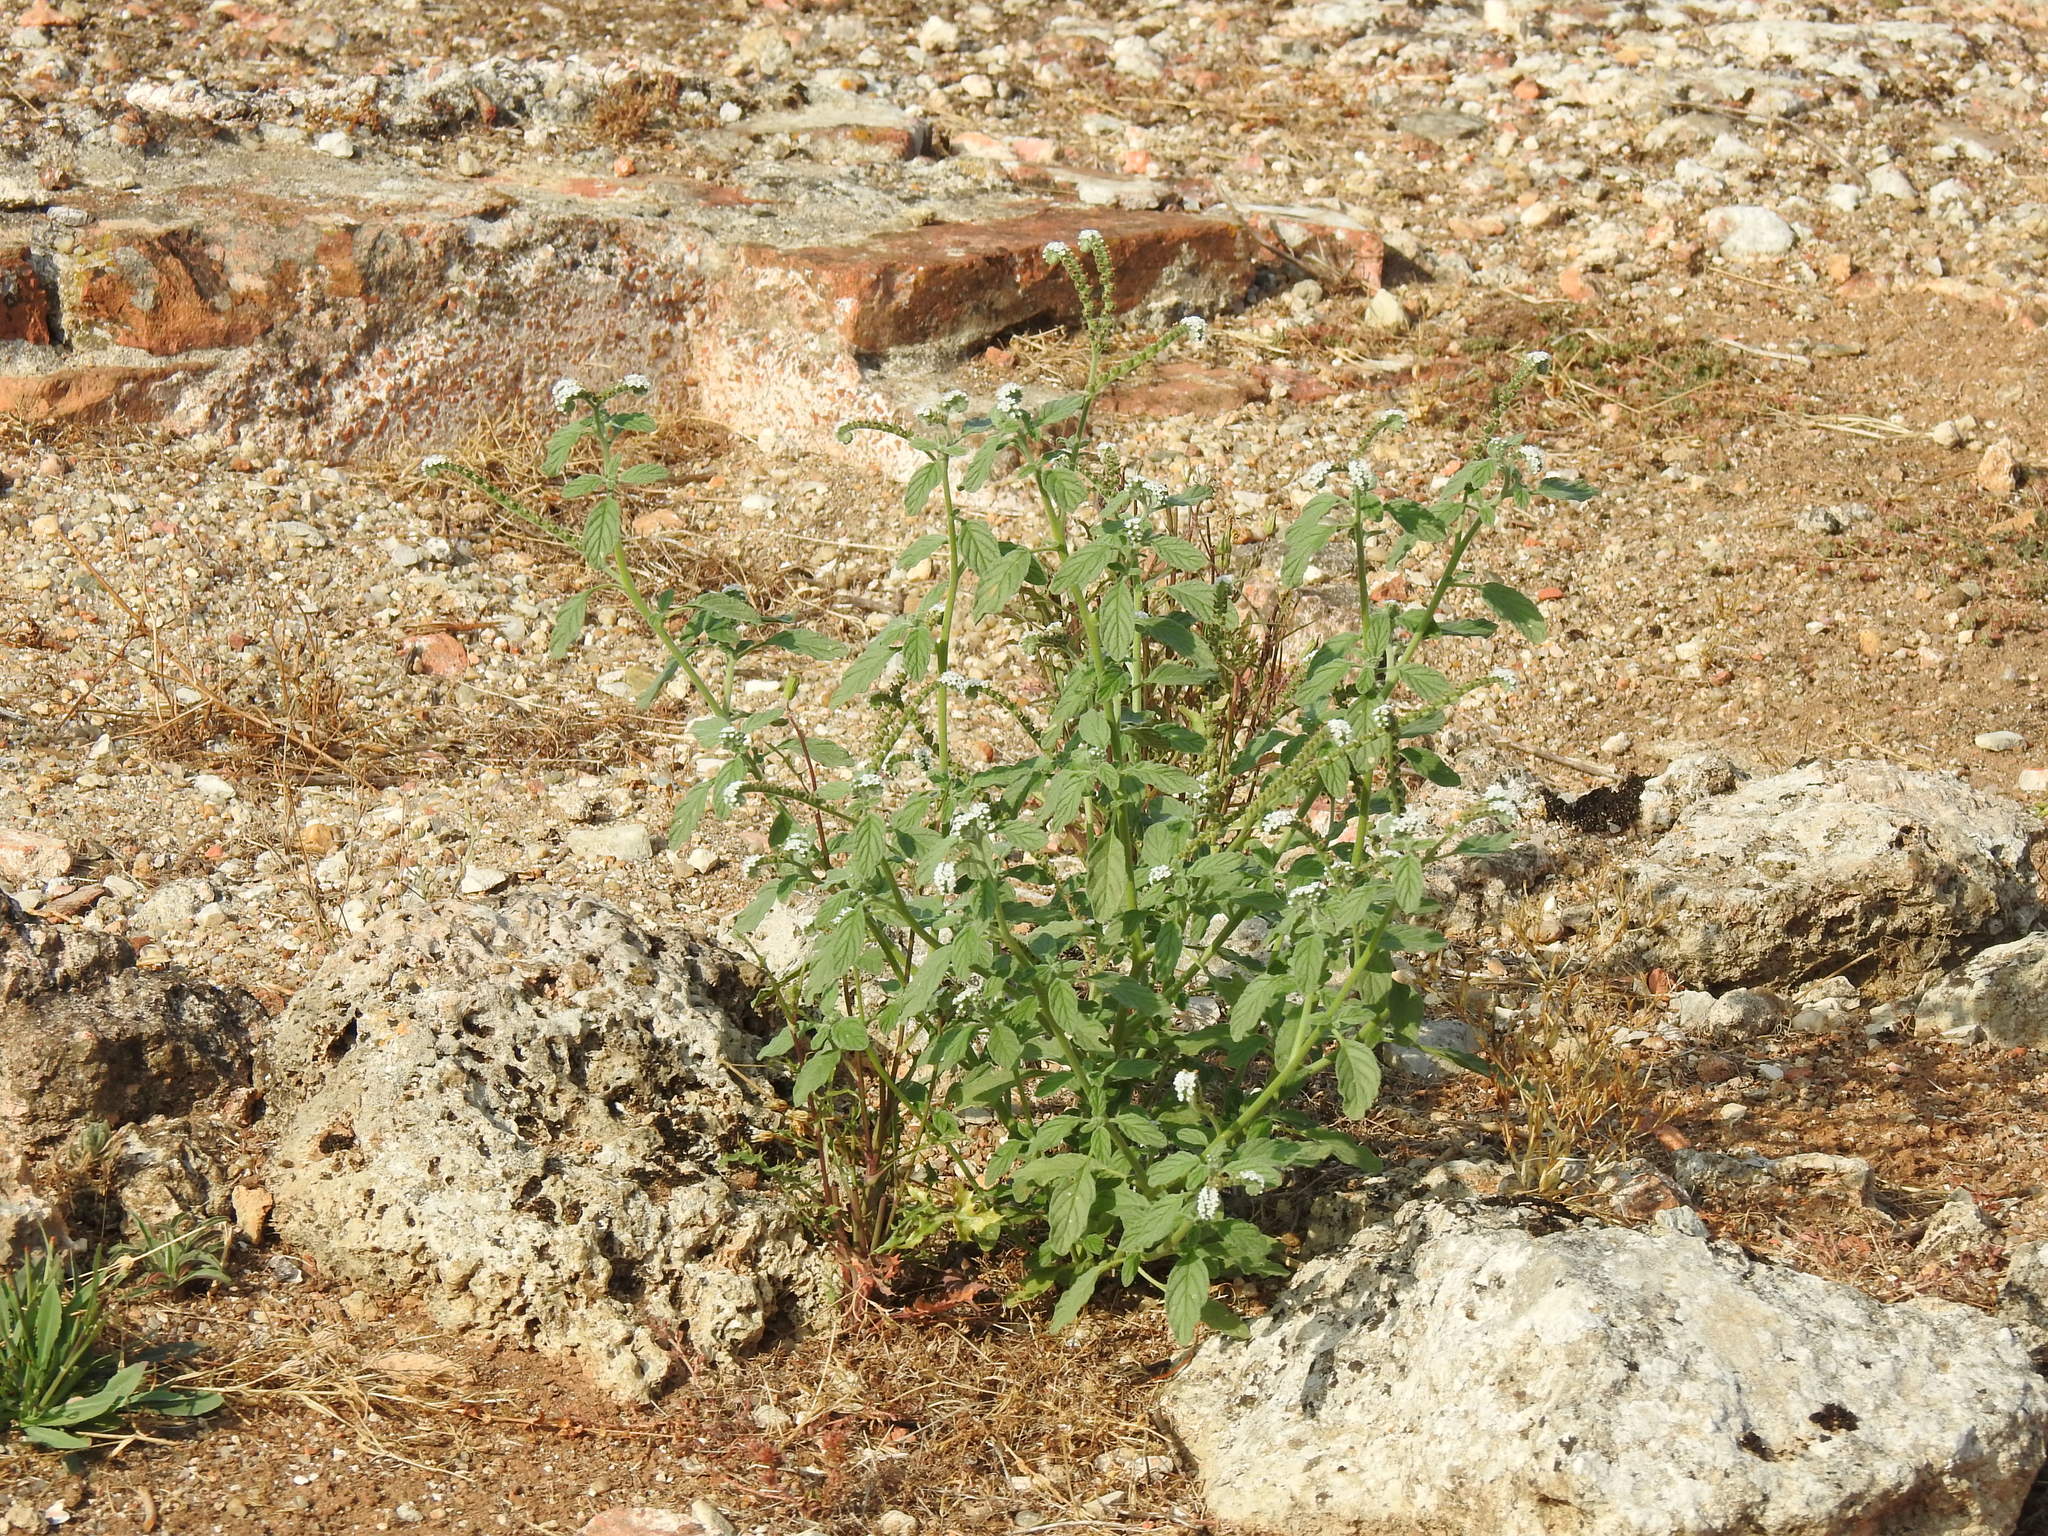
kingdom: Plantae
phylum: Tracheophyta
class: Magnoliopsida
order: Boraginales
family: Heliotropiaceae
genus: Heliotropium
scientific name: Heliotropium europaeum
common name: European heliotrope
